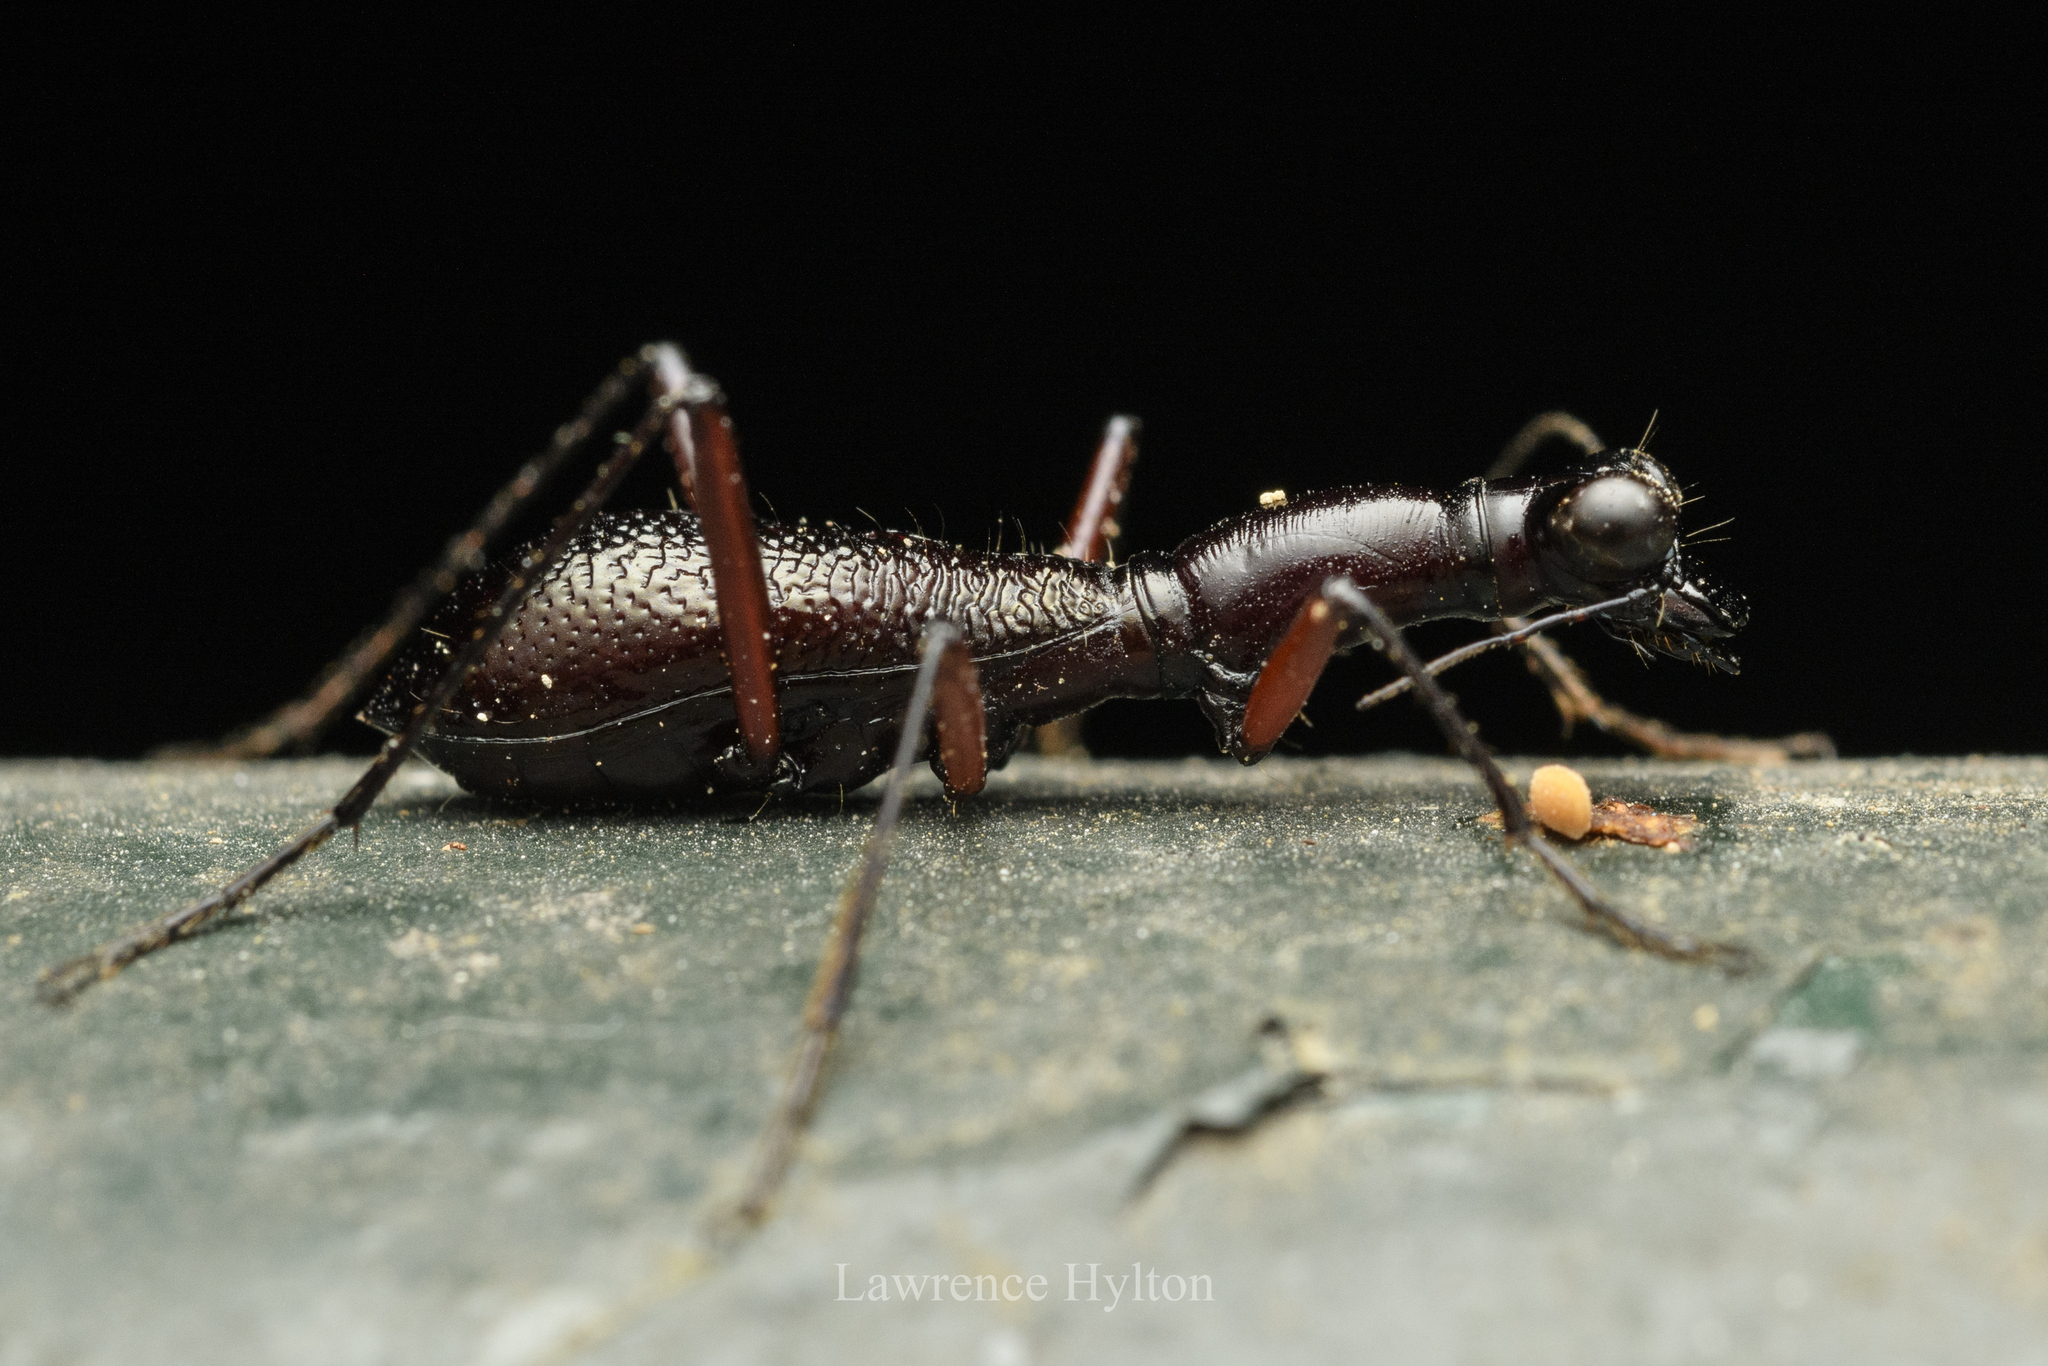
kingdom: Animalia
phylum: Arthropoda
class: Insecta
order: Coleoptera
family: Carabidae
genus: Tricondyla
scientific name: Tricondyla pulchripes
